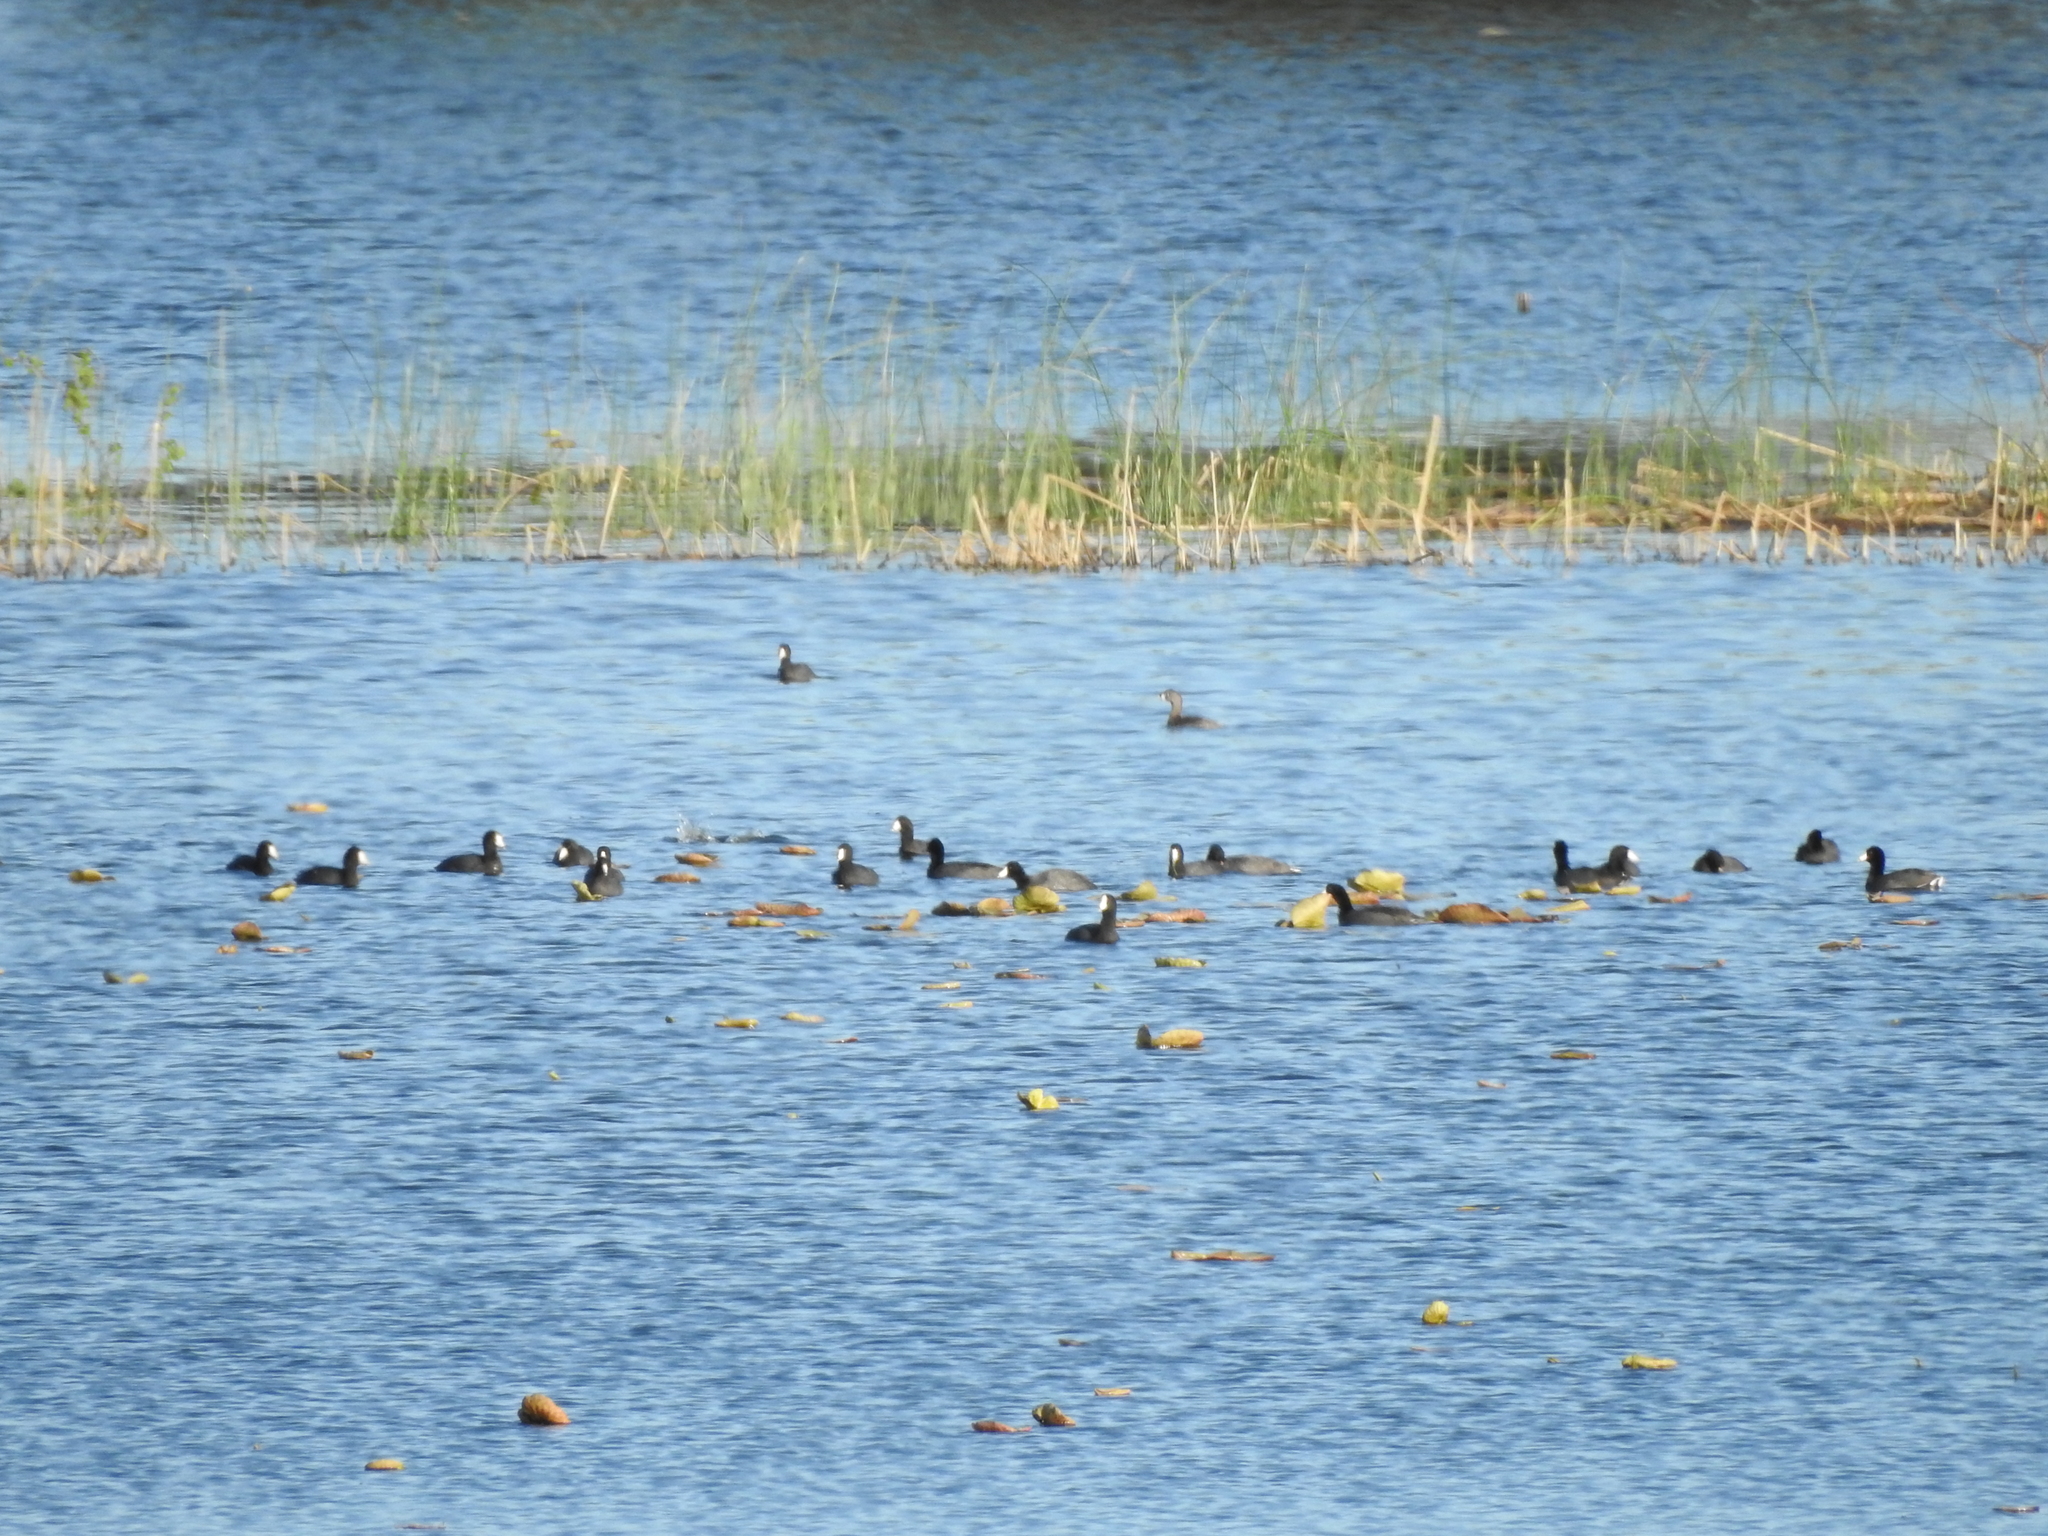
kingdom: Animalia
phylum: Chordata
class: Aves
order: Gruiformes
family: Rallidae
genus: Fulica
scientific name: Fulica americana
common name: American coot
